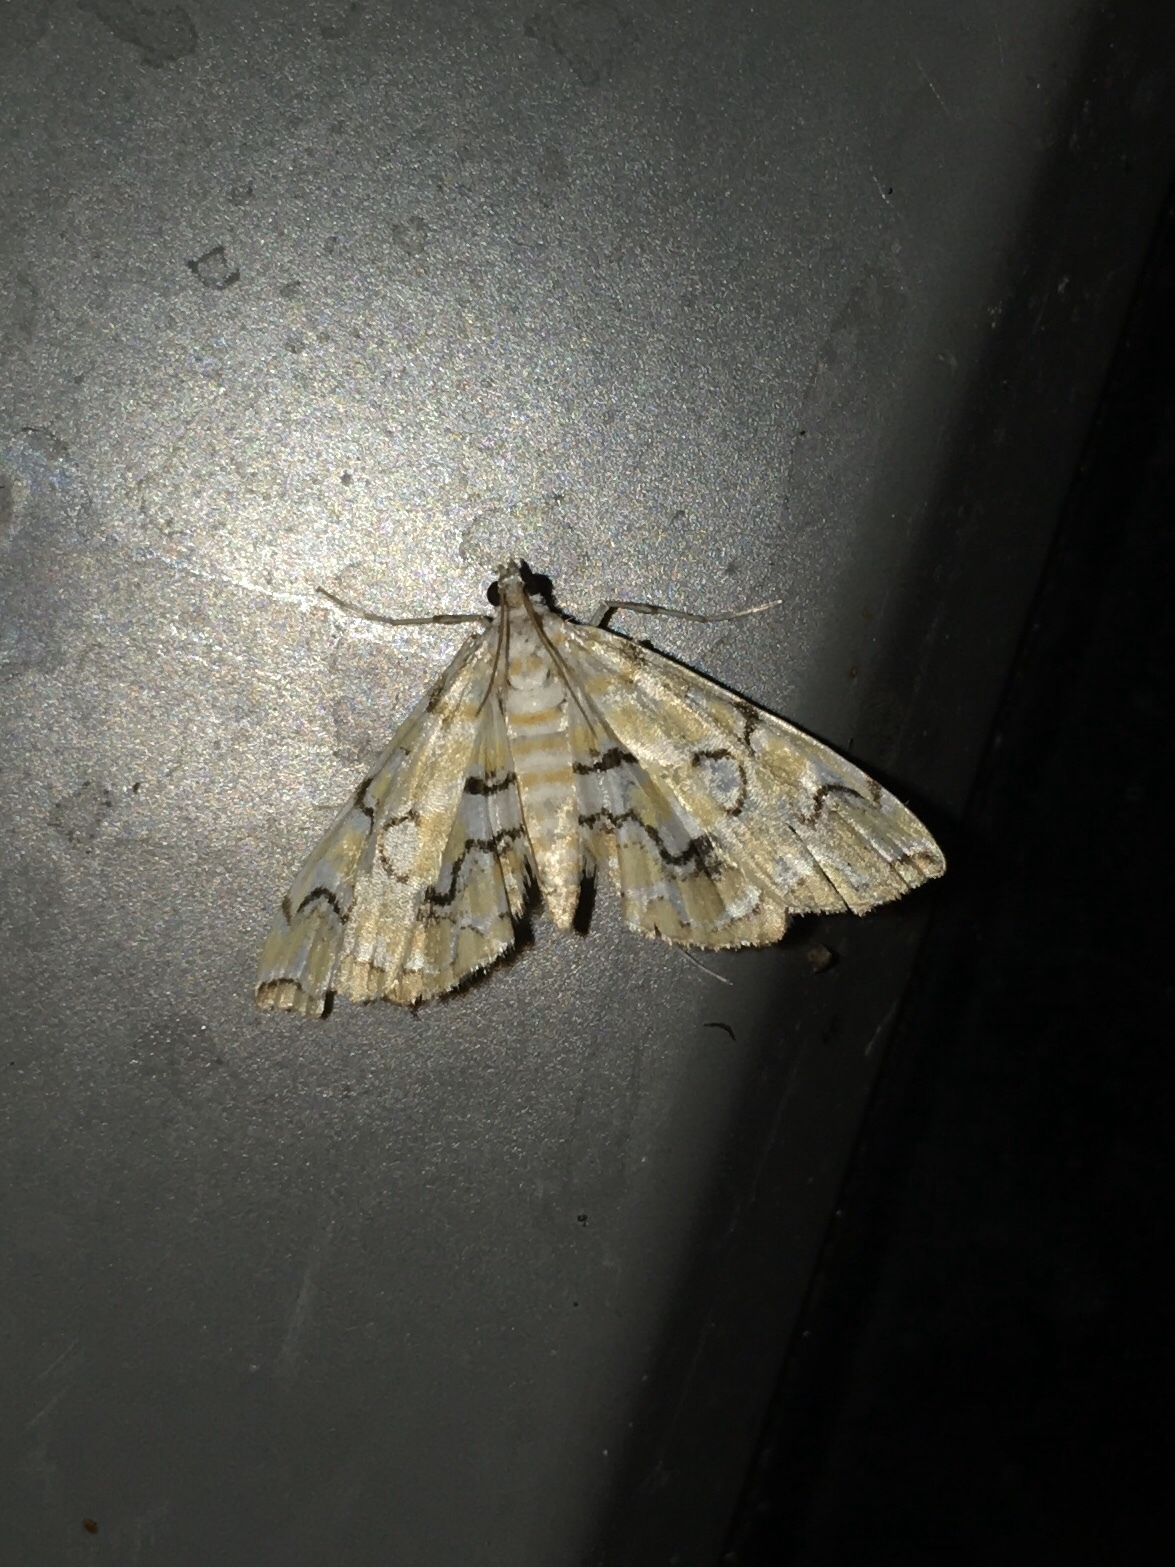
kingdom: Animalia
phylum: Arthropoda
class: Insecta
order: Lepidoptera
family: Crambidae
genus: Elophila
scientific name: Elophila icciusalis
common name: Pondside pyralid moth
